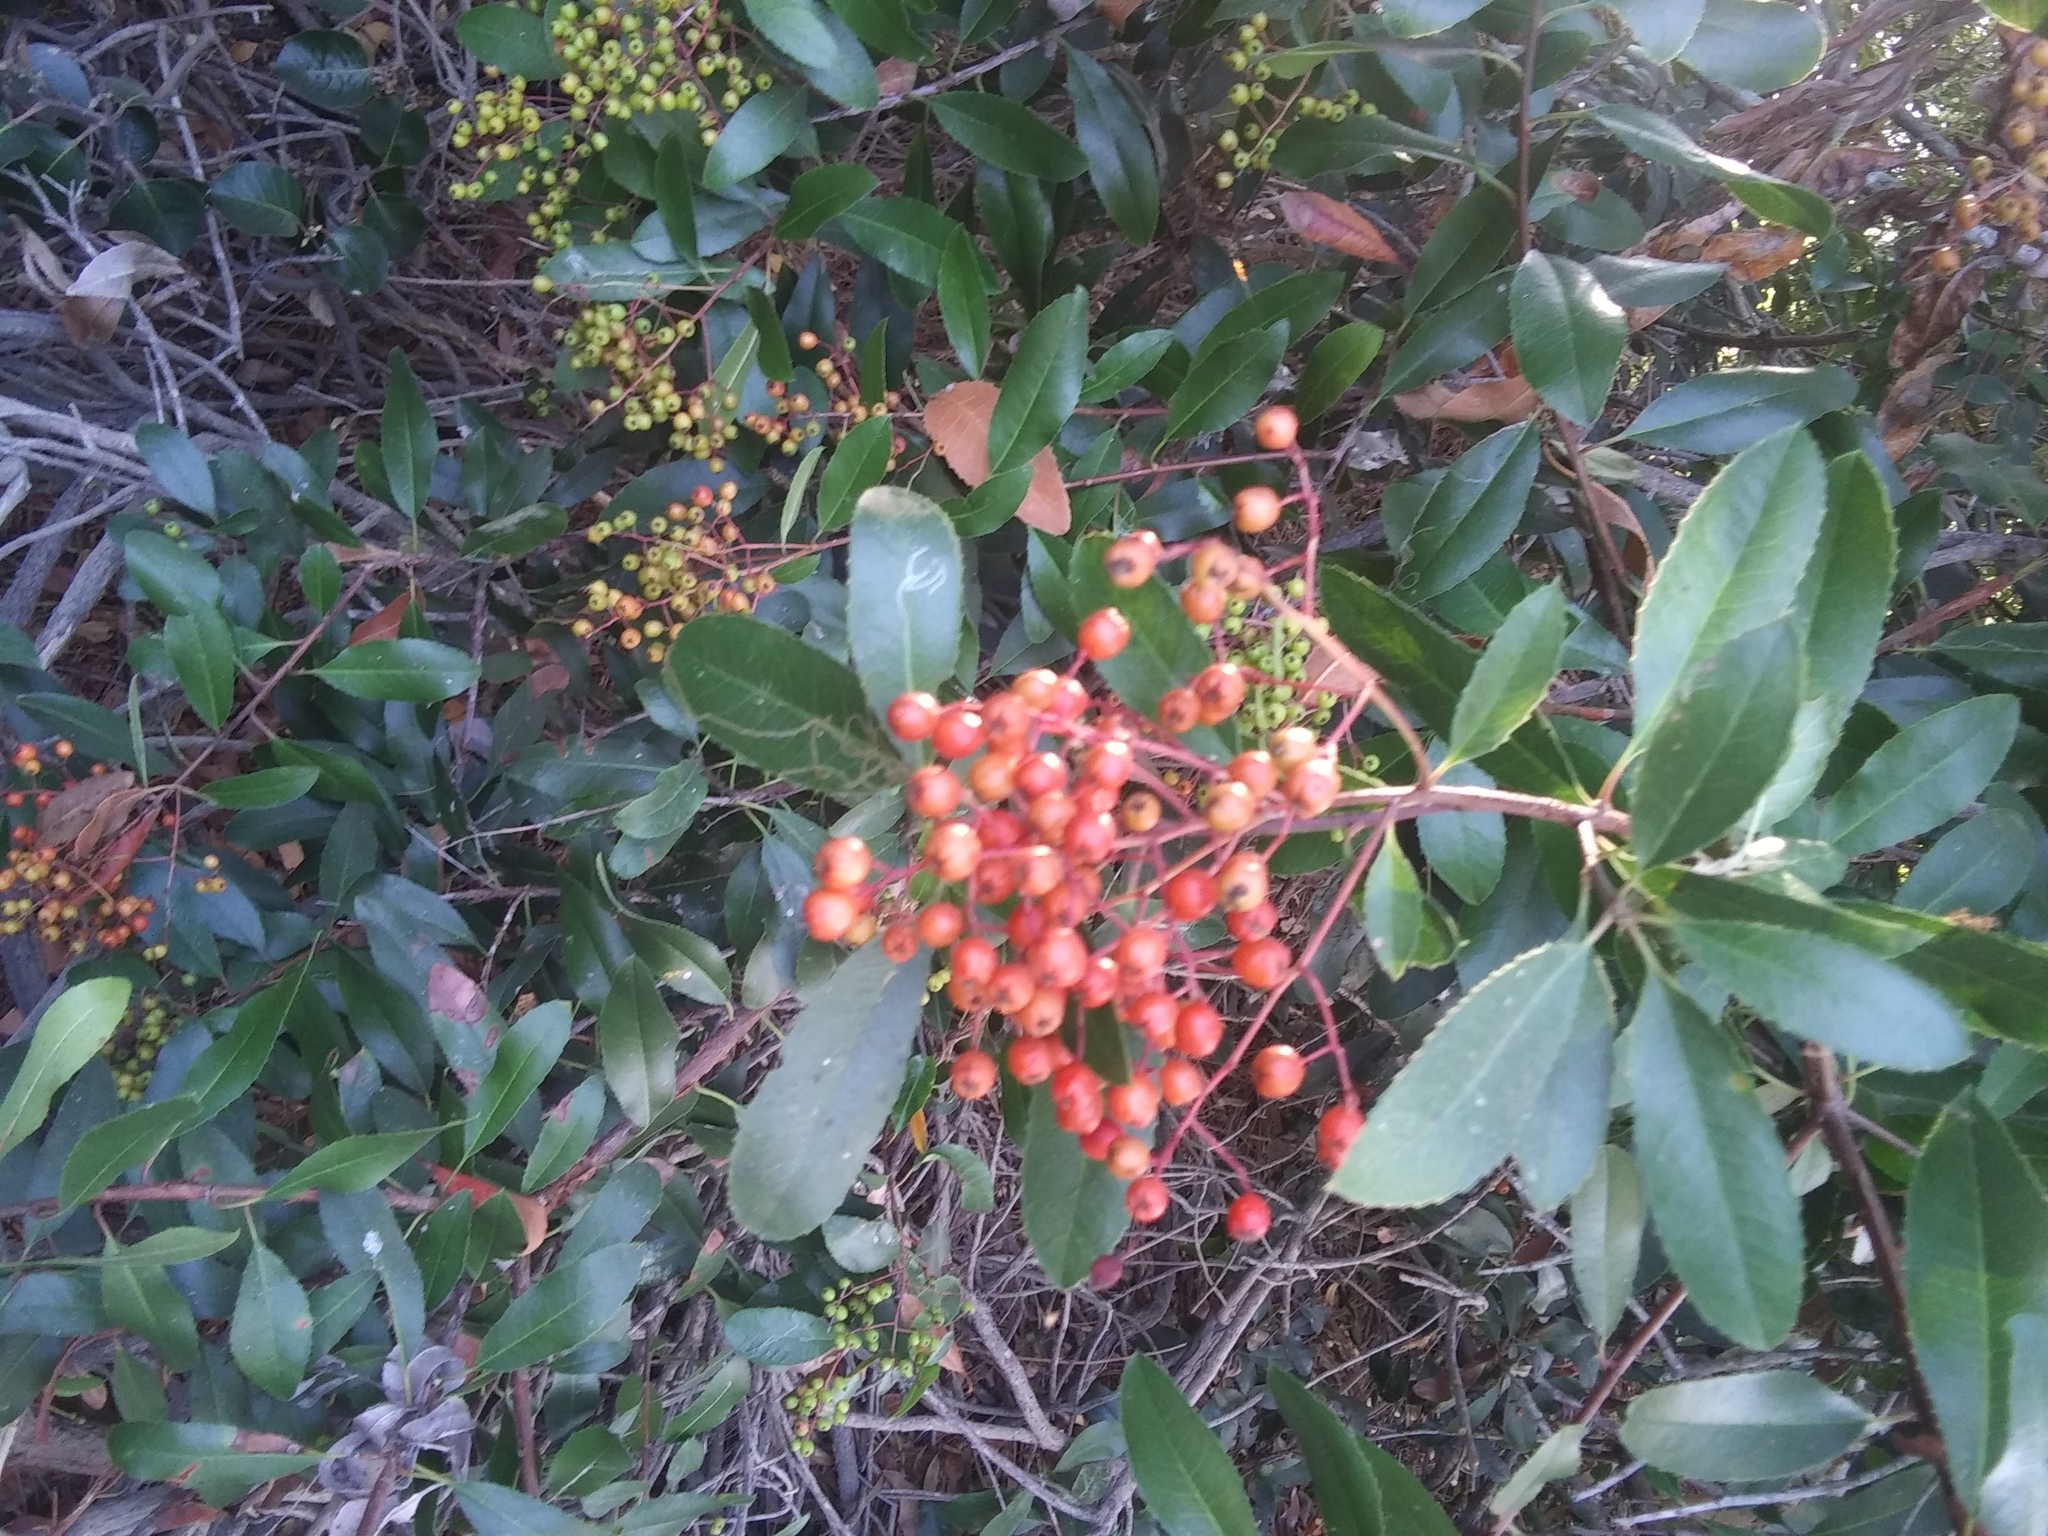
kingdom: Plantae
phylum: Tracheophyta
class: Magnoliopsida
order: Rosales
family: Rosaceae
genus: Heteromeles
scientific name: Heteromeles arbutifolia
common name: California-holly
